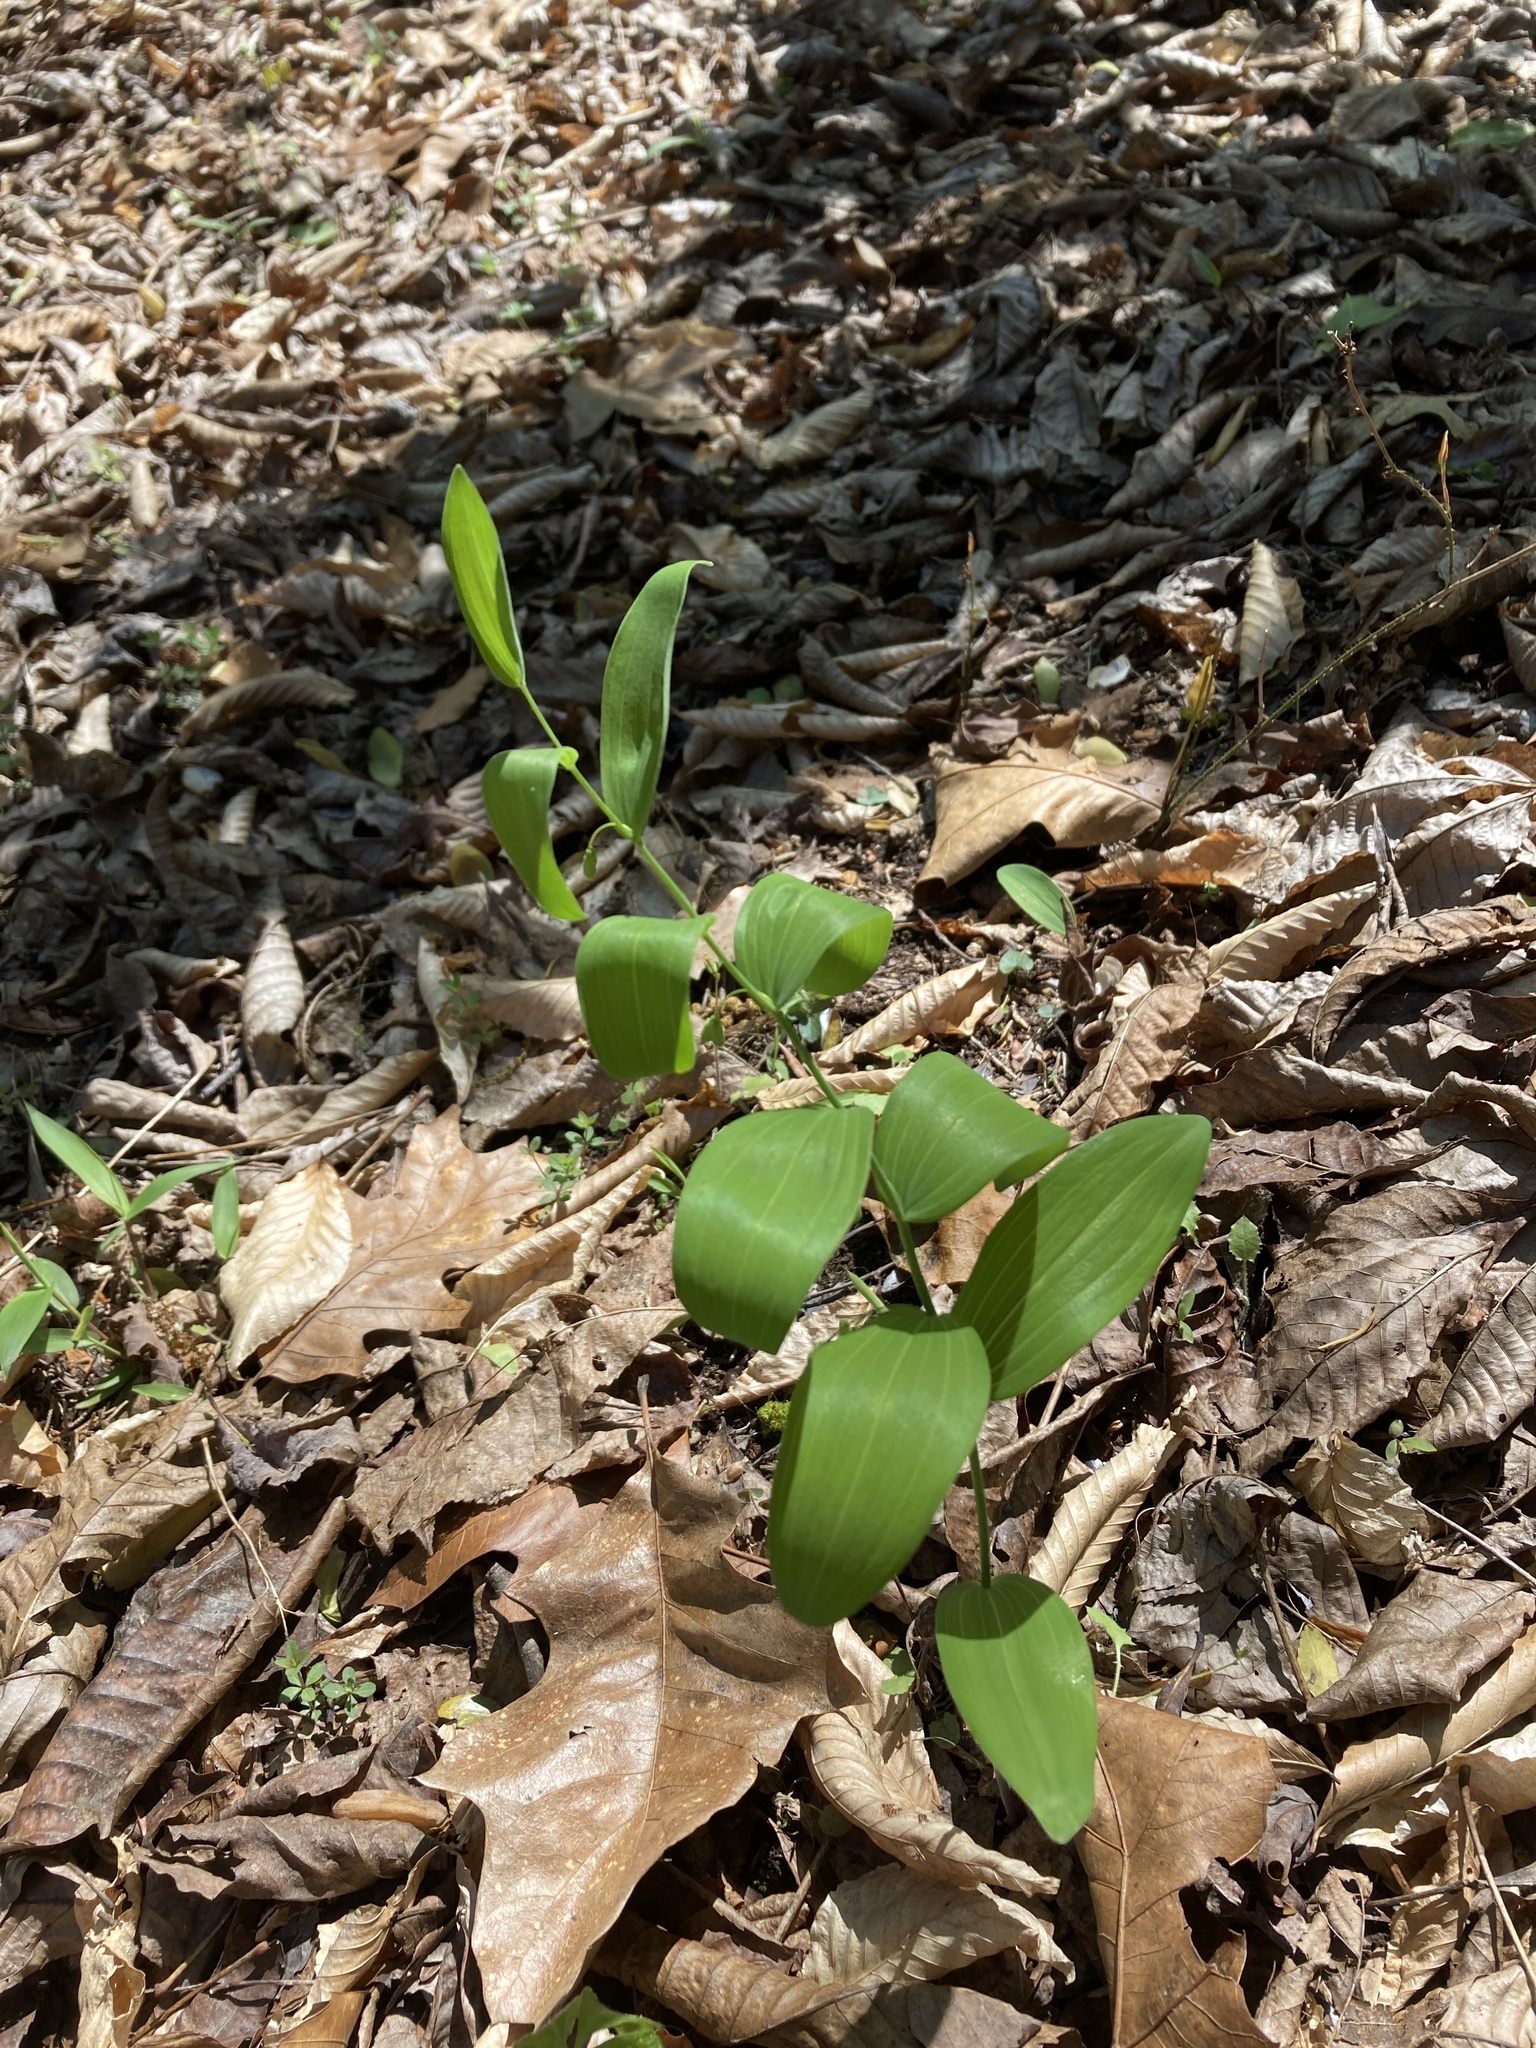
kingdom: Plantae
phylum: Tracheophyta
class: Liliopsida
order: Asparagales
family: Asparagaceae
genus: Polygonatum
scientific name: Polygonatum biflorum
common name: American solomon's-seal
